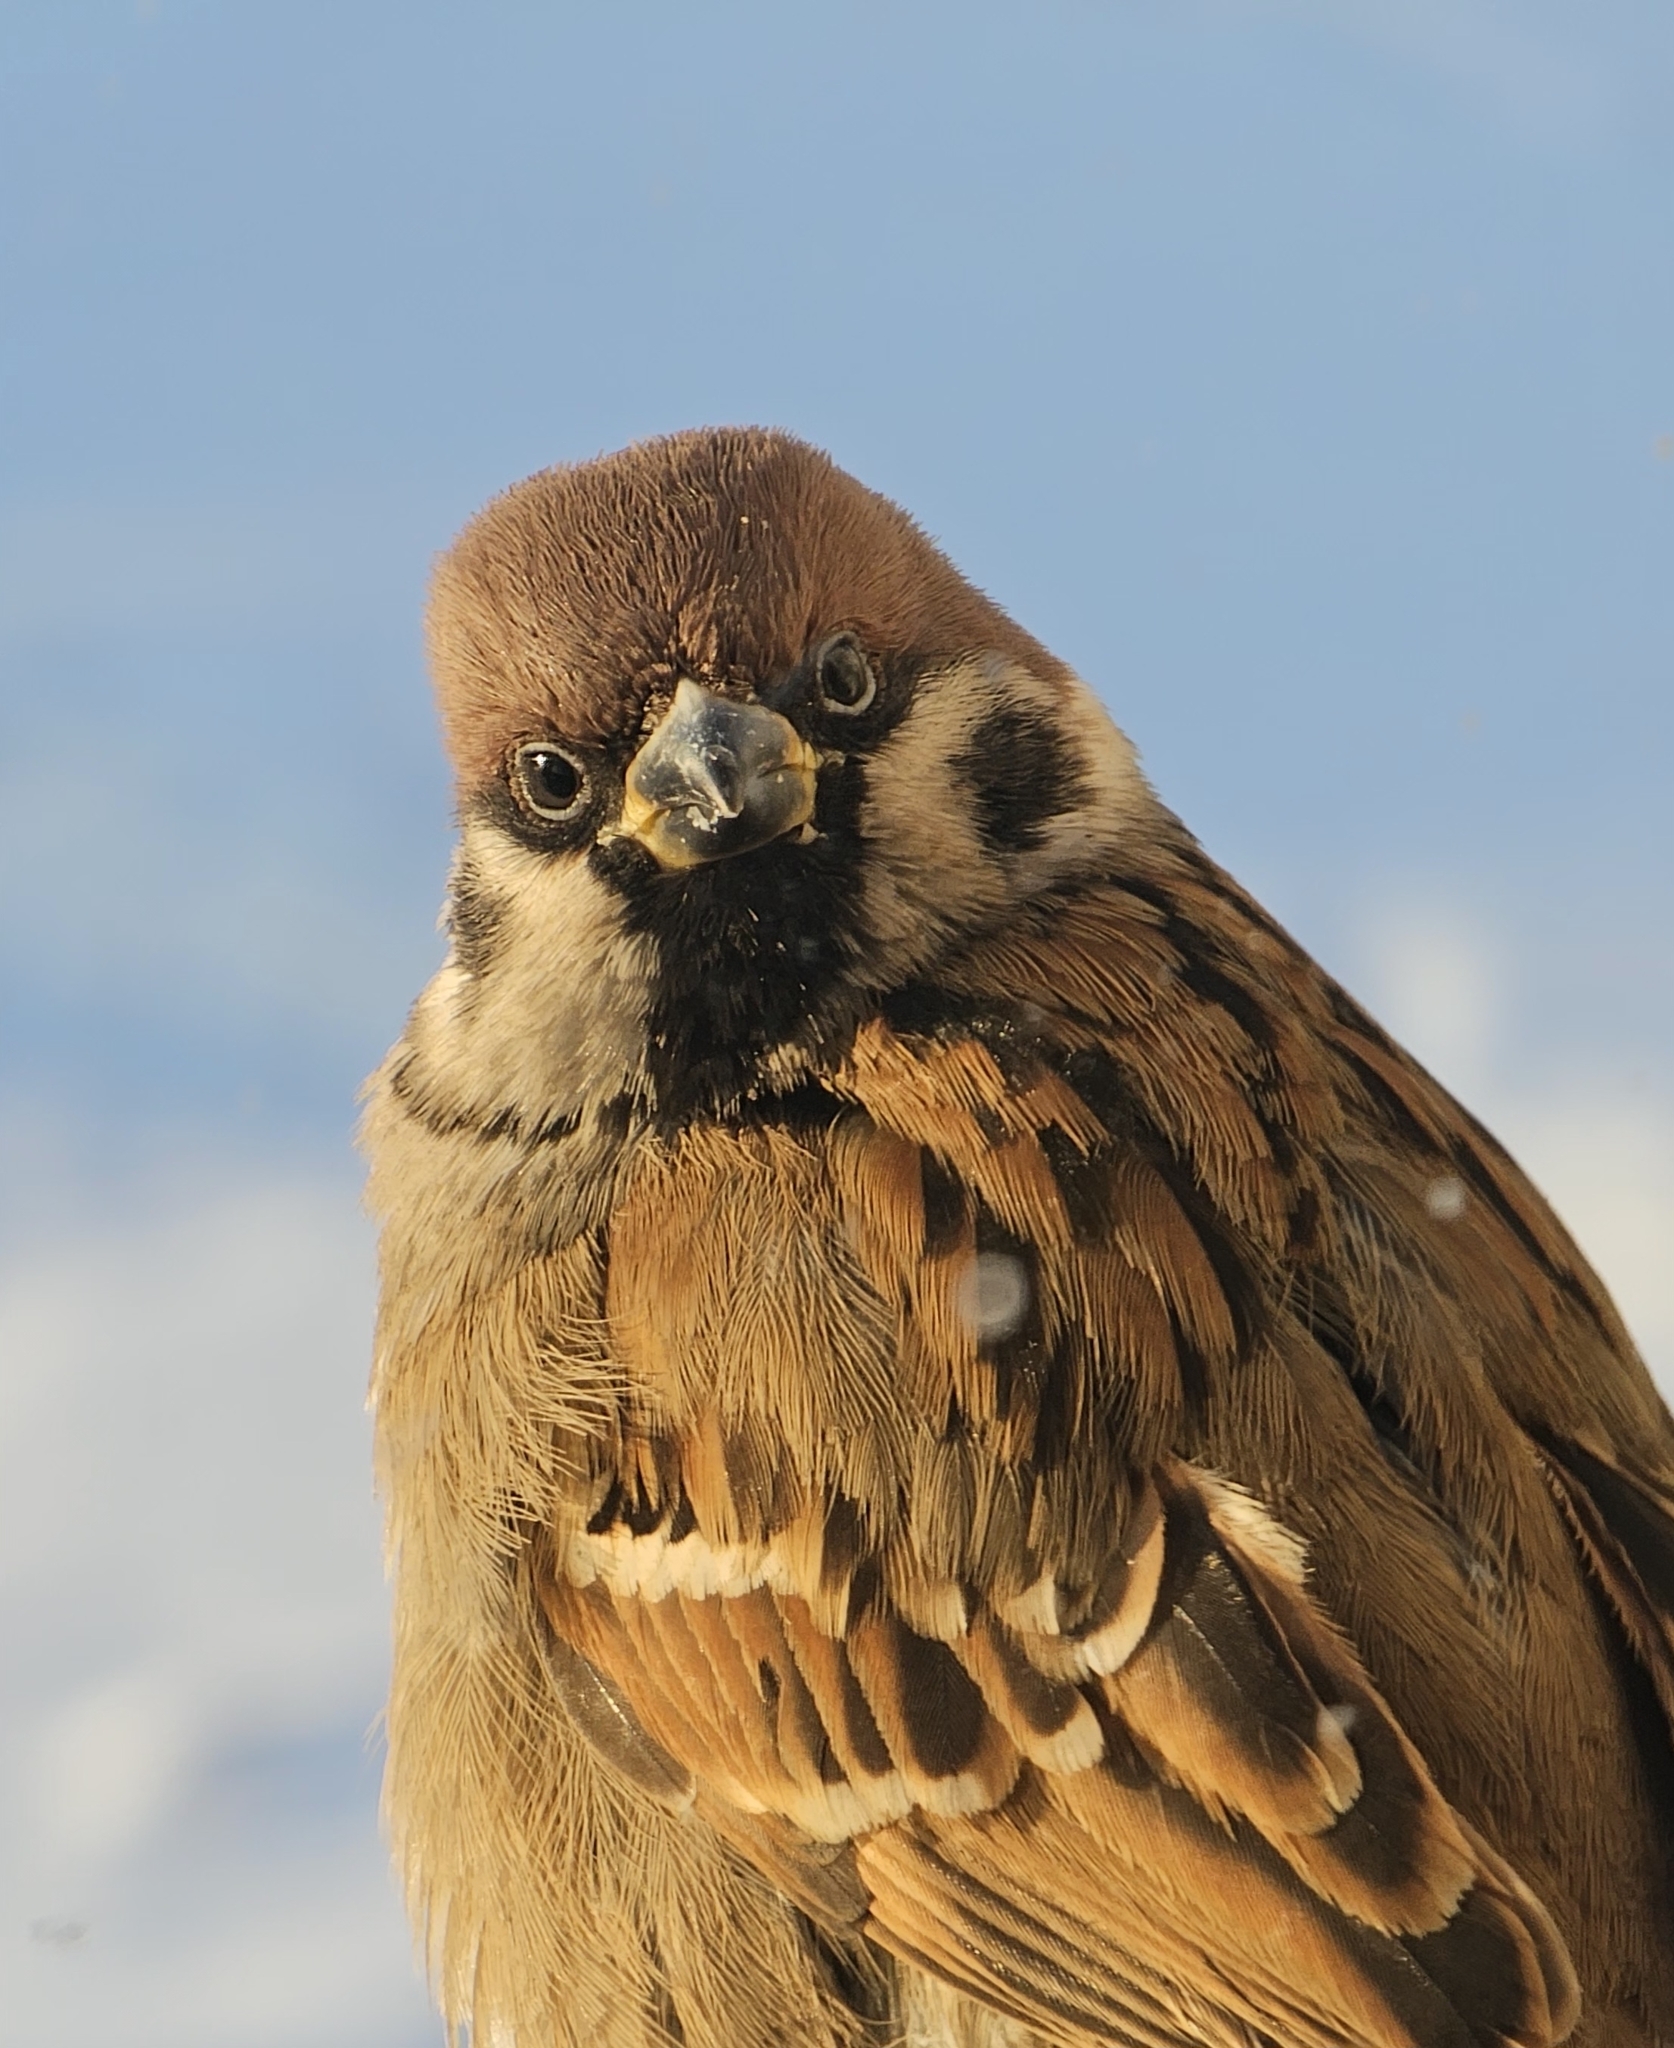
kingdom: Animalia
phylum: Chordata
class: Aves
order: Passeriformes
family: Passeridae
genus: Passer
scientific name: Passer montanus
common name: Eurasian tree sparrow
